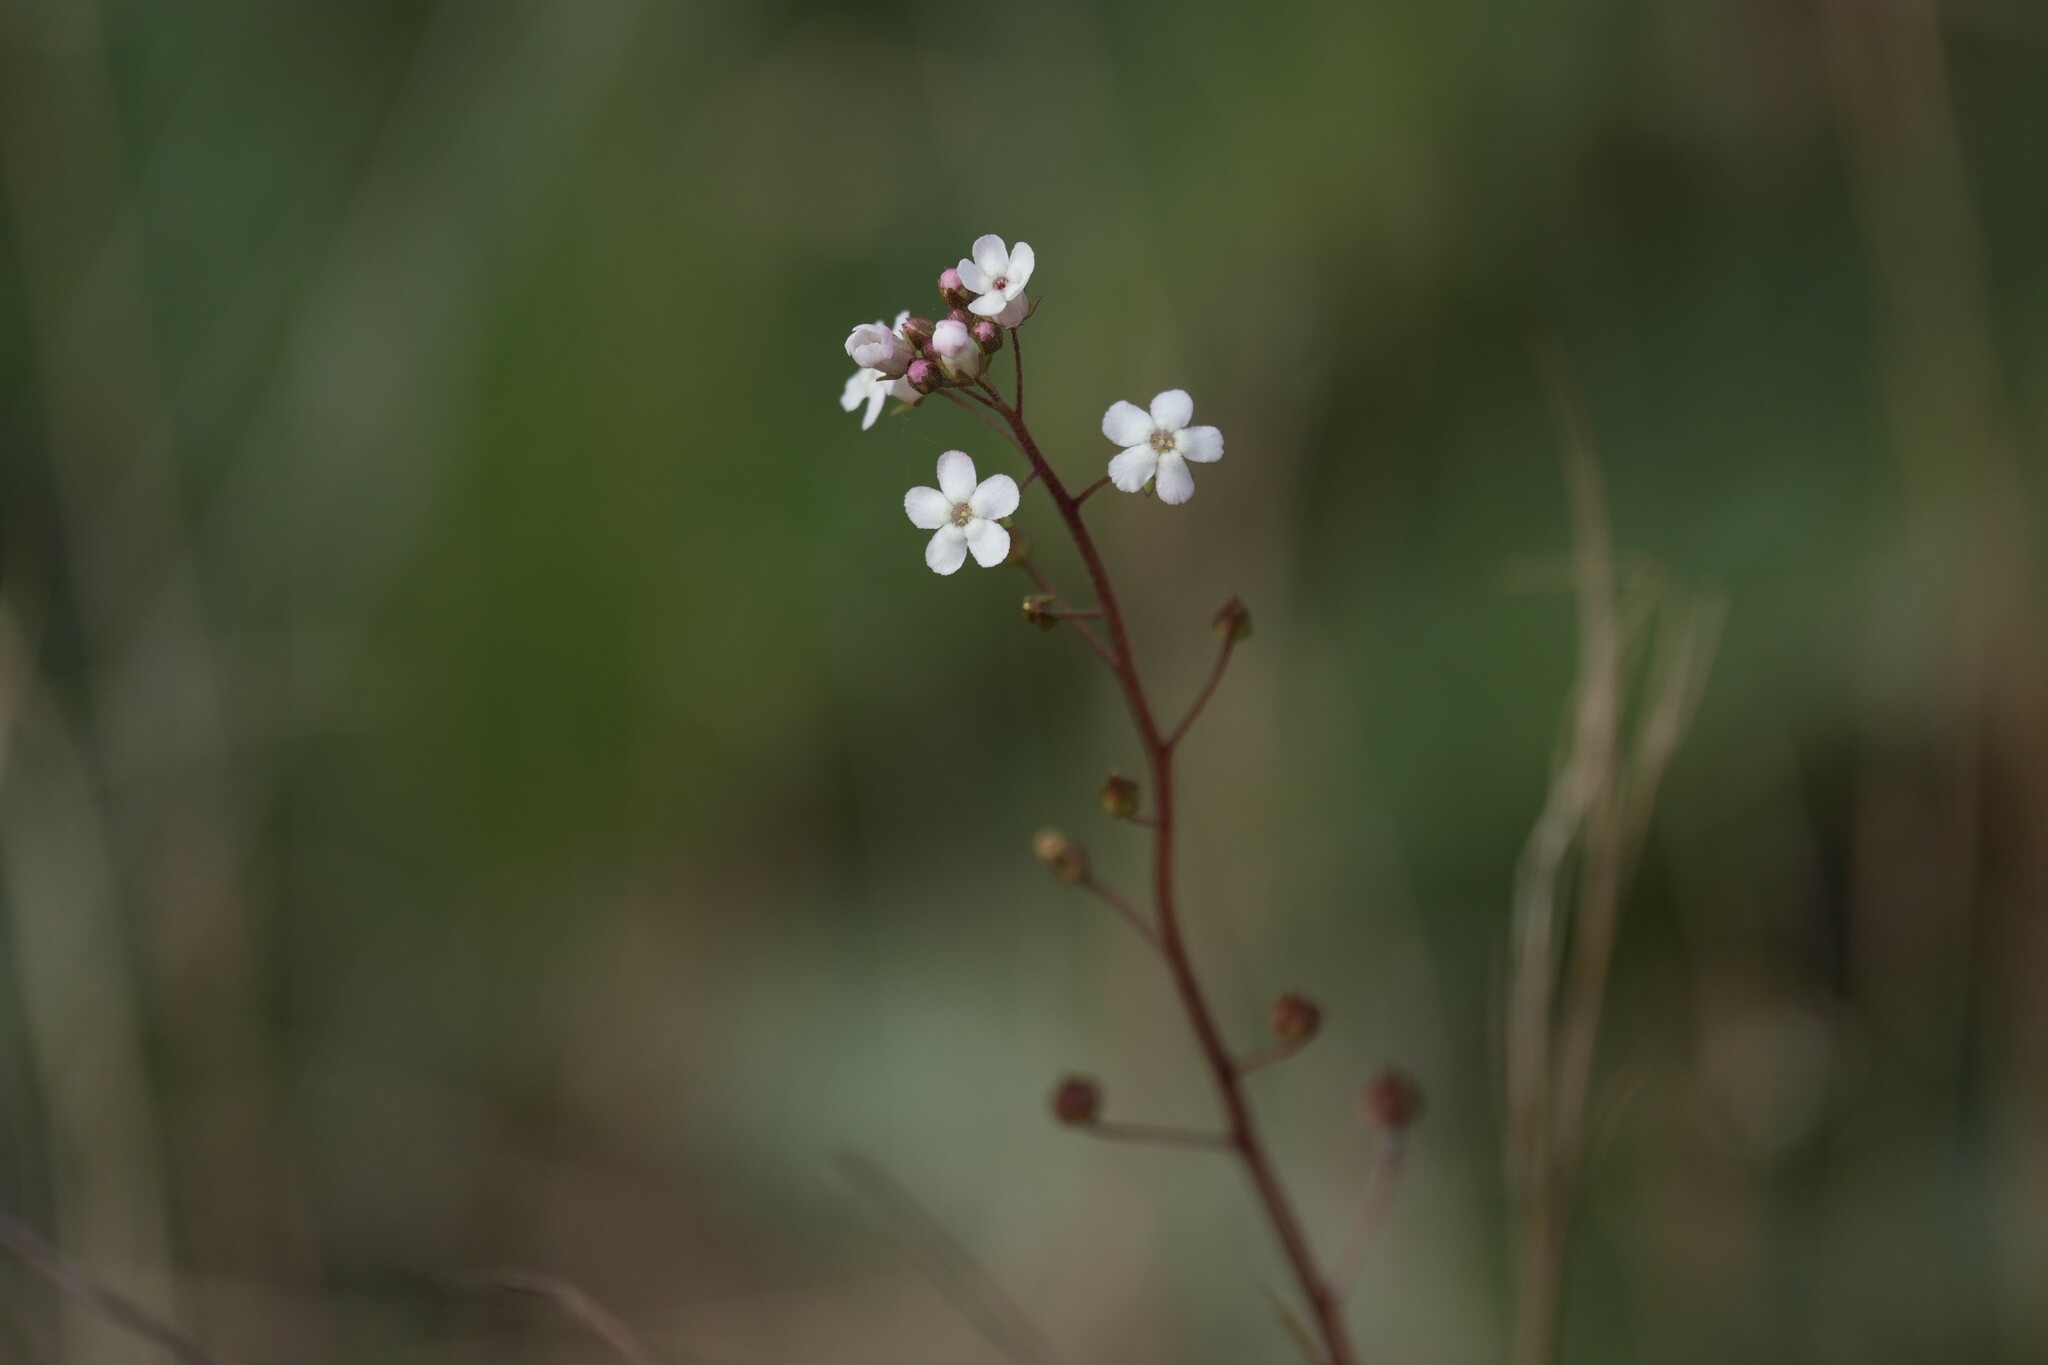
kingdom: Plantae
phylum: Tracheophyta
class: Magnoliopsida
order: Ericales
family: Primulaceae
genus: Samolus
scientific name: Samolus ebracteatus
